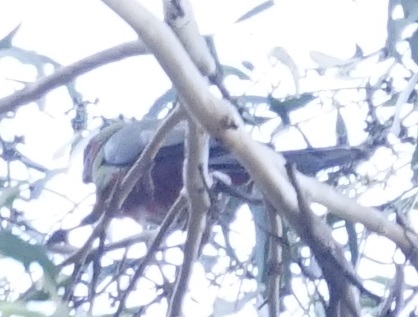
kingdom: Animalia
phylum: Chordata
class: Aves
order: Psittaciformes
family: Psittacidae
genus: Platycercus
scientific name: Platycercus elegans
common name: Crimson rosella
